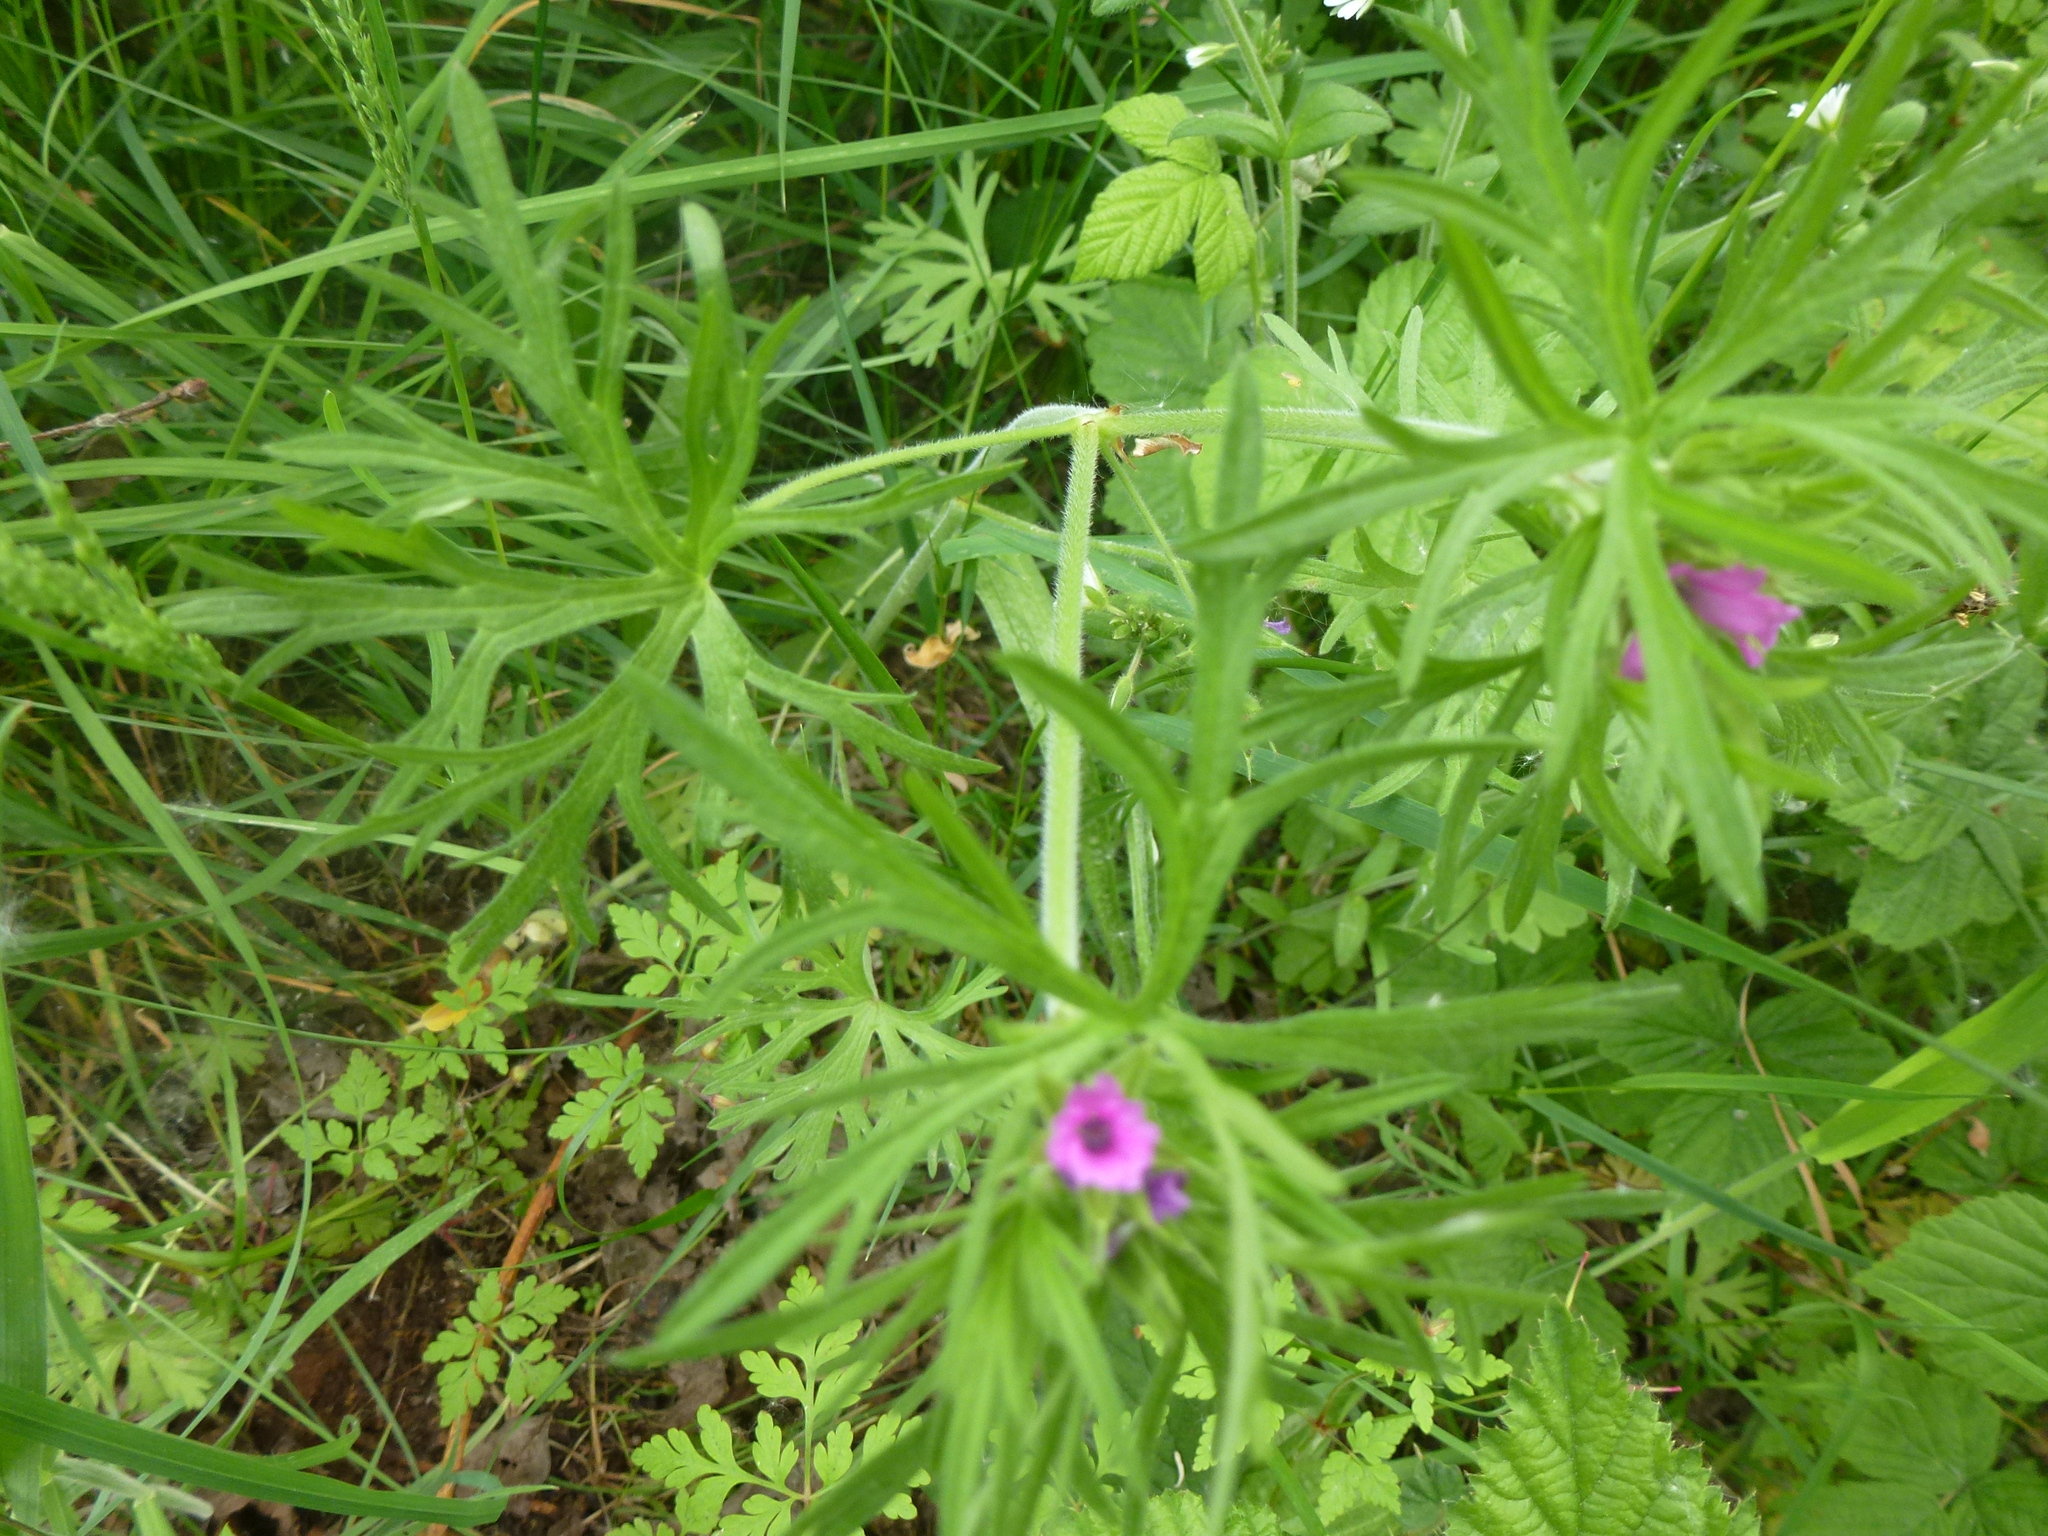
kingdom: Plantae
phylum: Tracheophyta
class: Magnoliopsida
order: Geraniales
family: Geraniaceae
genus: Geranium
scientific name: Geranium dissectum
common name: Cut-leaved crane's-bill
